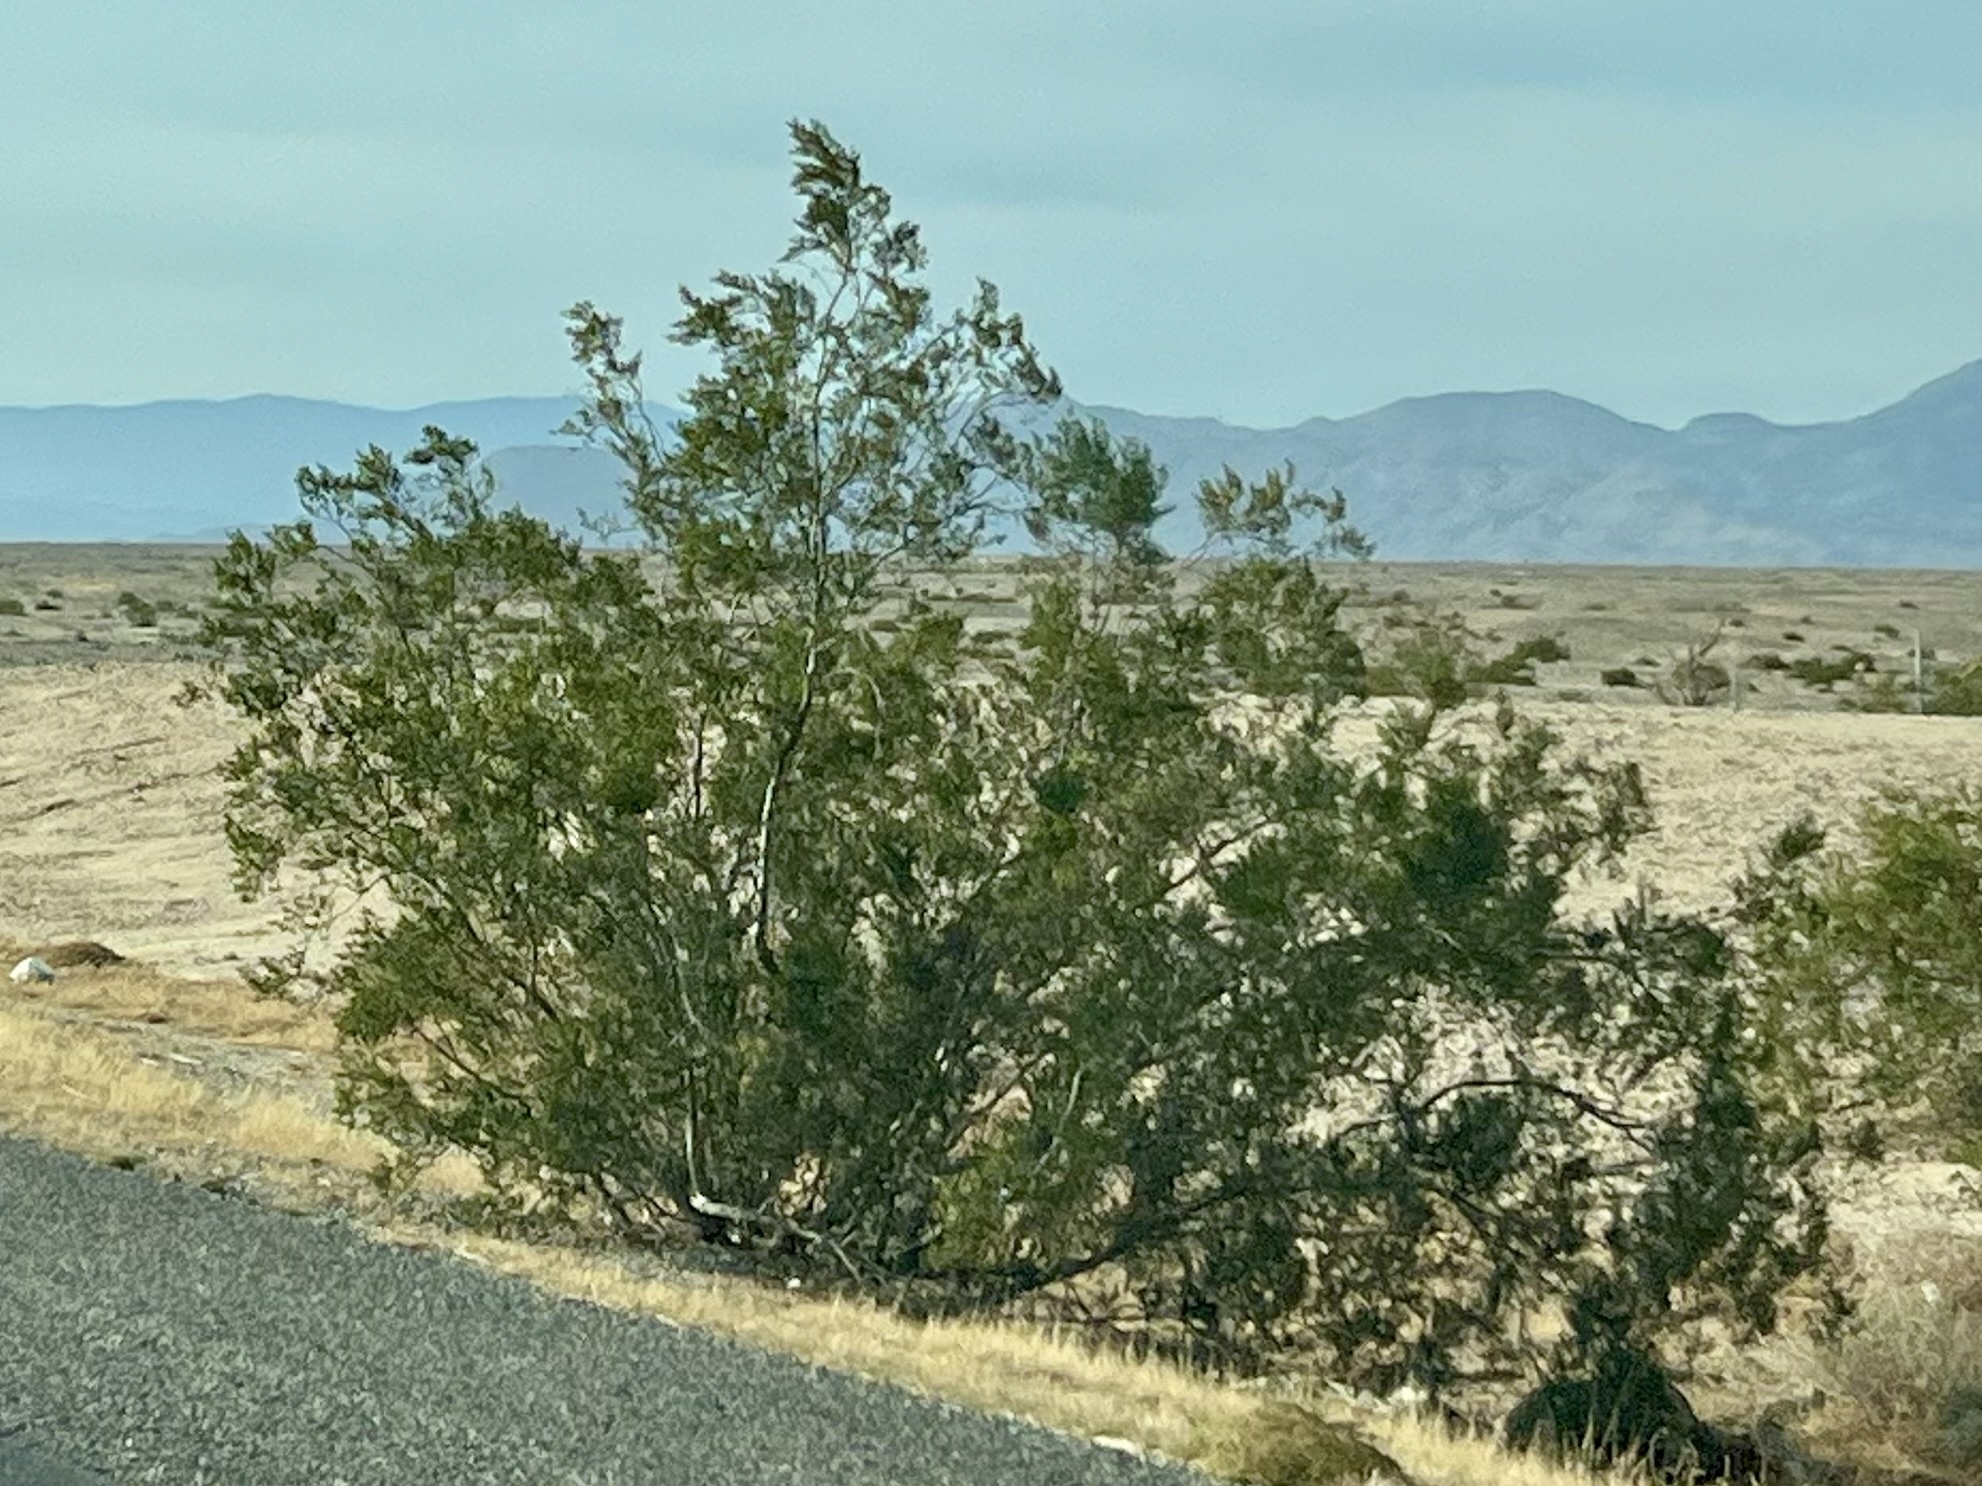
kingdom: Plantae
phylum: Tracheophyta
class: Magnoliopsida
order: Zygophyllales
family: Zygophyllaceae
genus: Larrea
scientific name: Larrea tridentata
